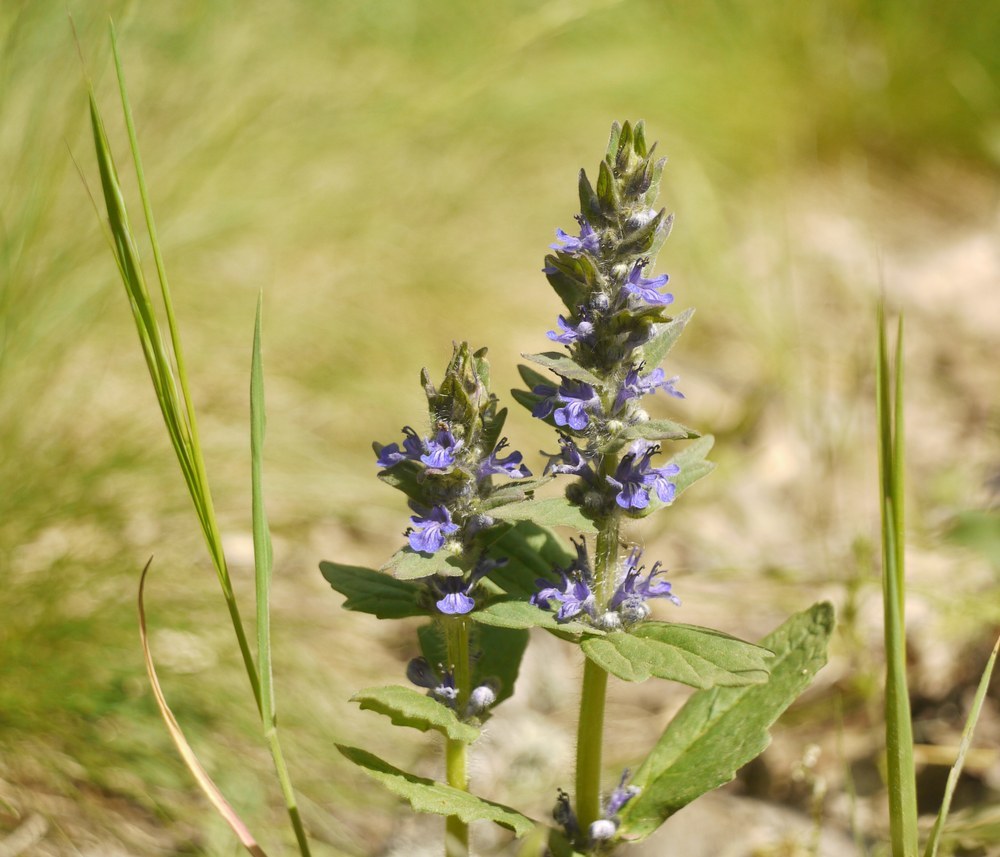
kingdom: Plantae
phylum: Tracheophyta
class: Magnoliopsida
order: Lamiales
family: Lamiaceae
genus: Ajuga
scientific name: Ajuga genevensis
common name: Blue bugle
